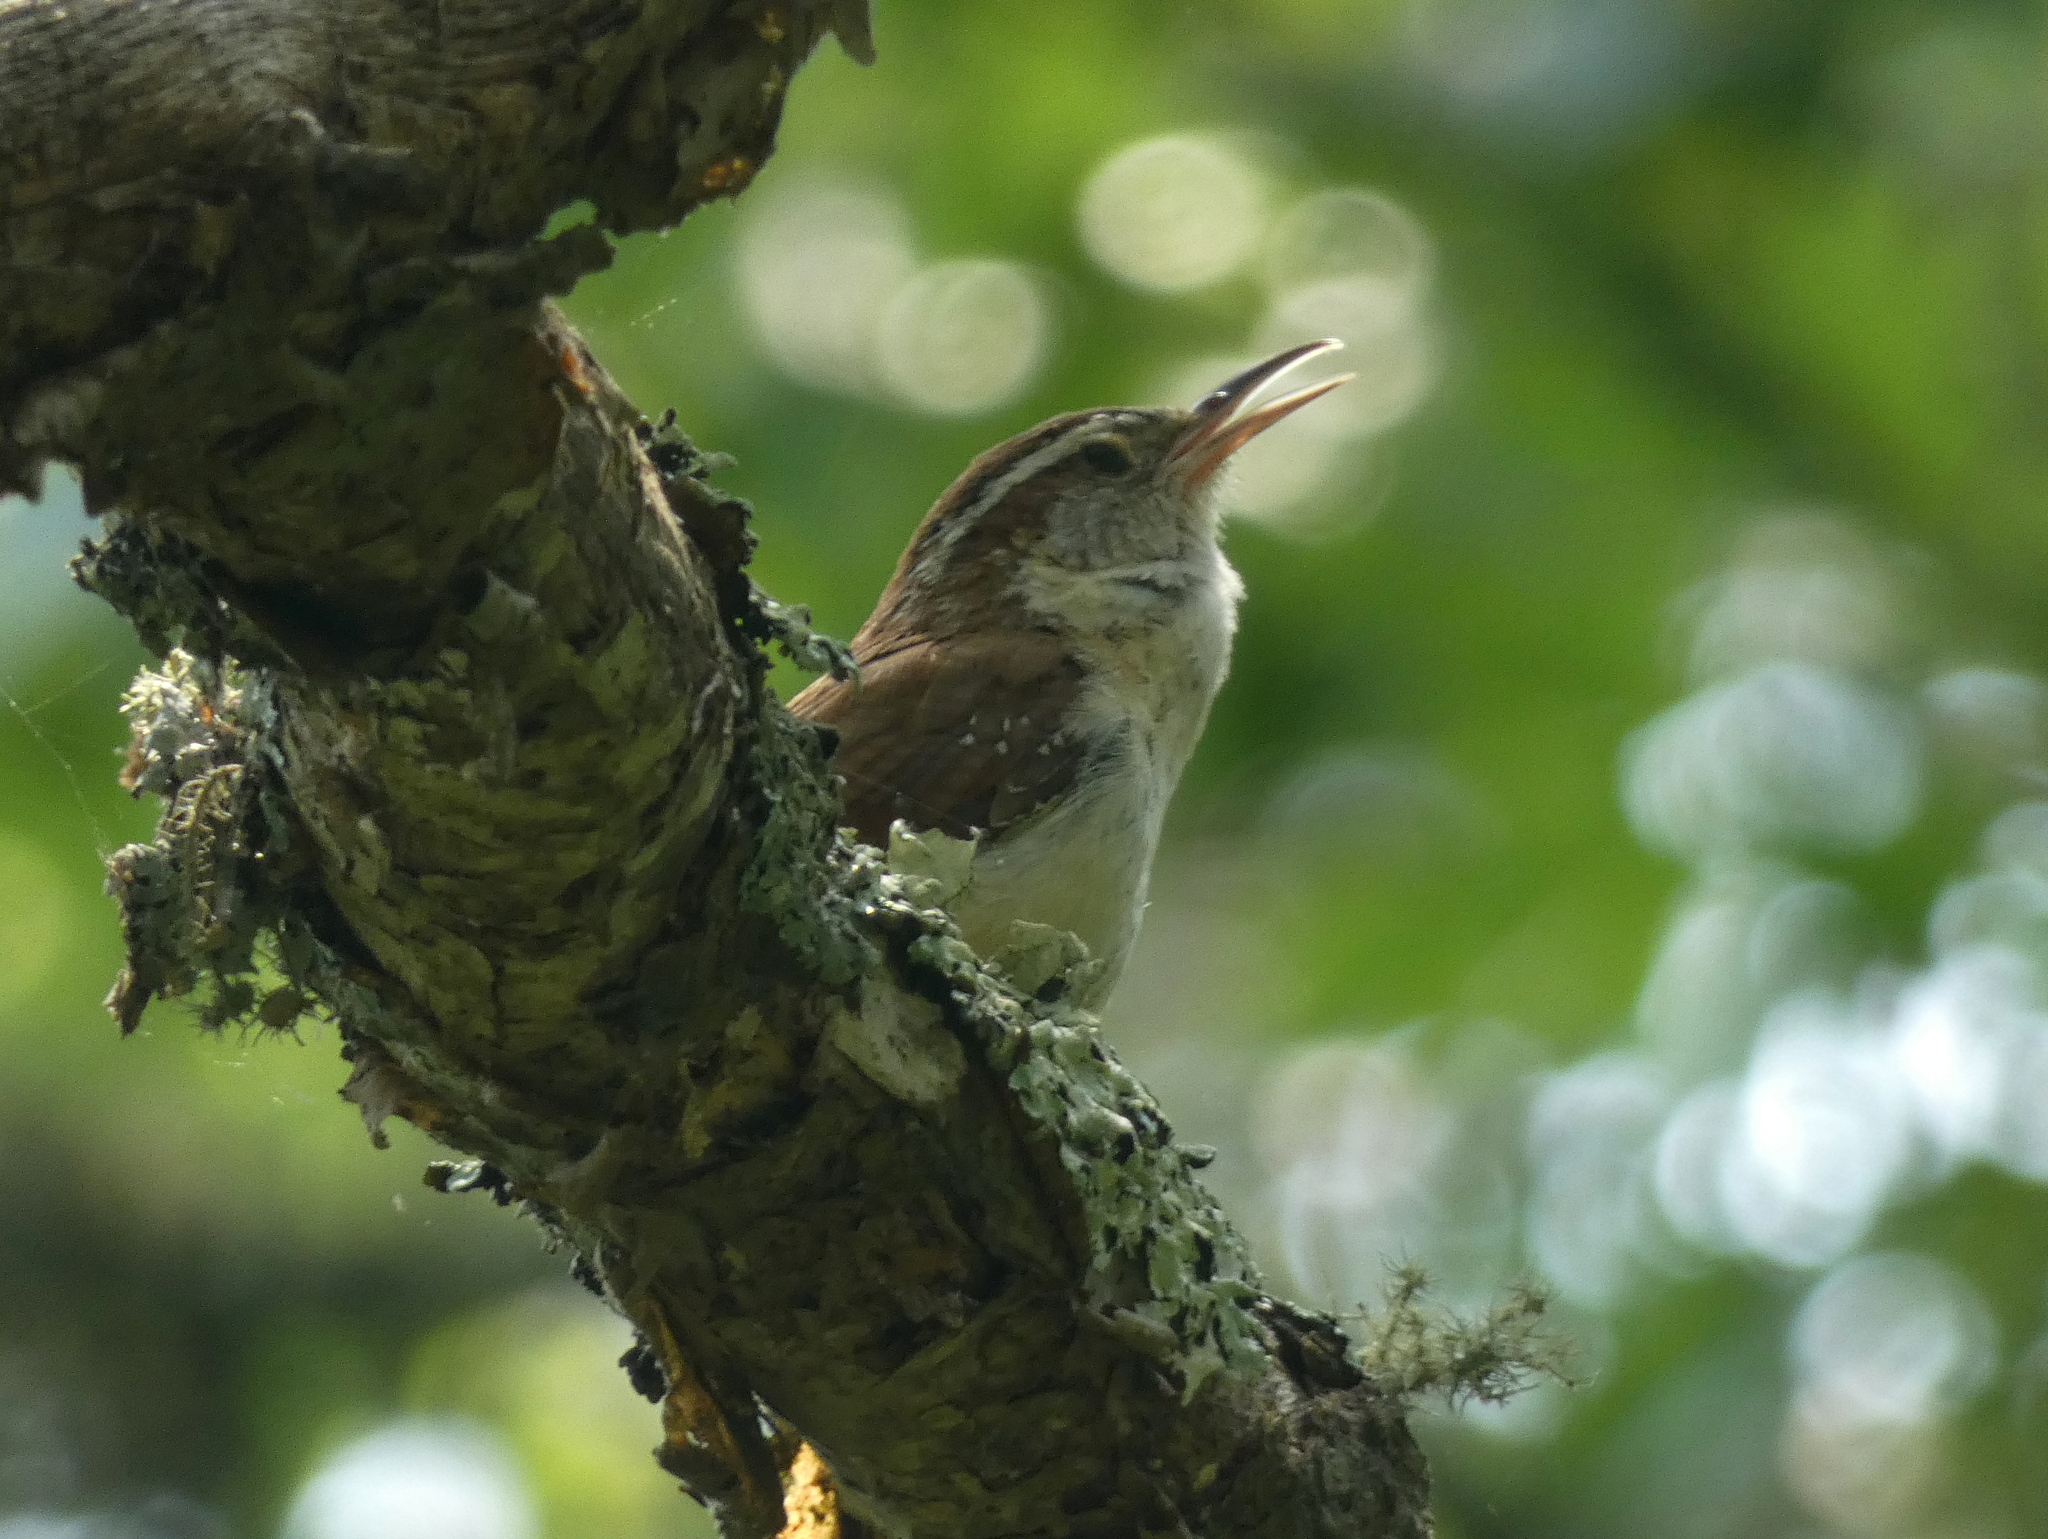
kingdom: Animalia
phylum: Chordata
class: Aves
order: Passeriformes
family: Troglodytidae
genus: Thryothorus
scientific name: Thryothorus ludovicianus
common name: Carolina wren
